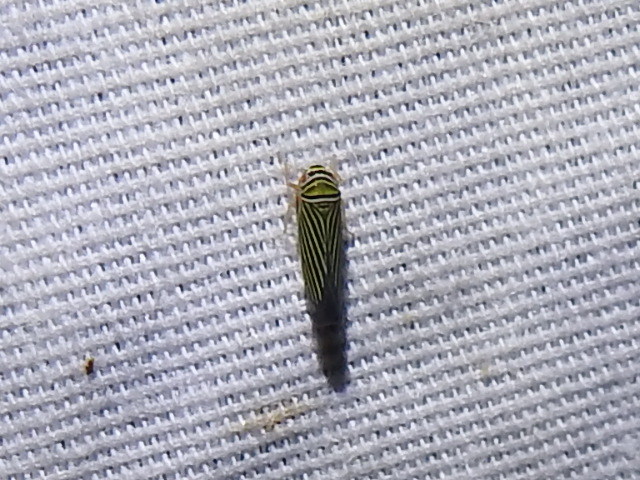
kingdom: Animalia
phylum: Arthropoda
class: Insecta
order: Hemiptera
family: Cicadellidae
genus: Tylozygus
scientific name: Tylozygus bifidus
